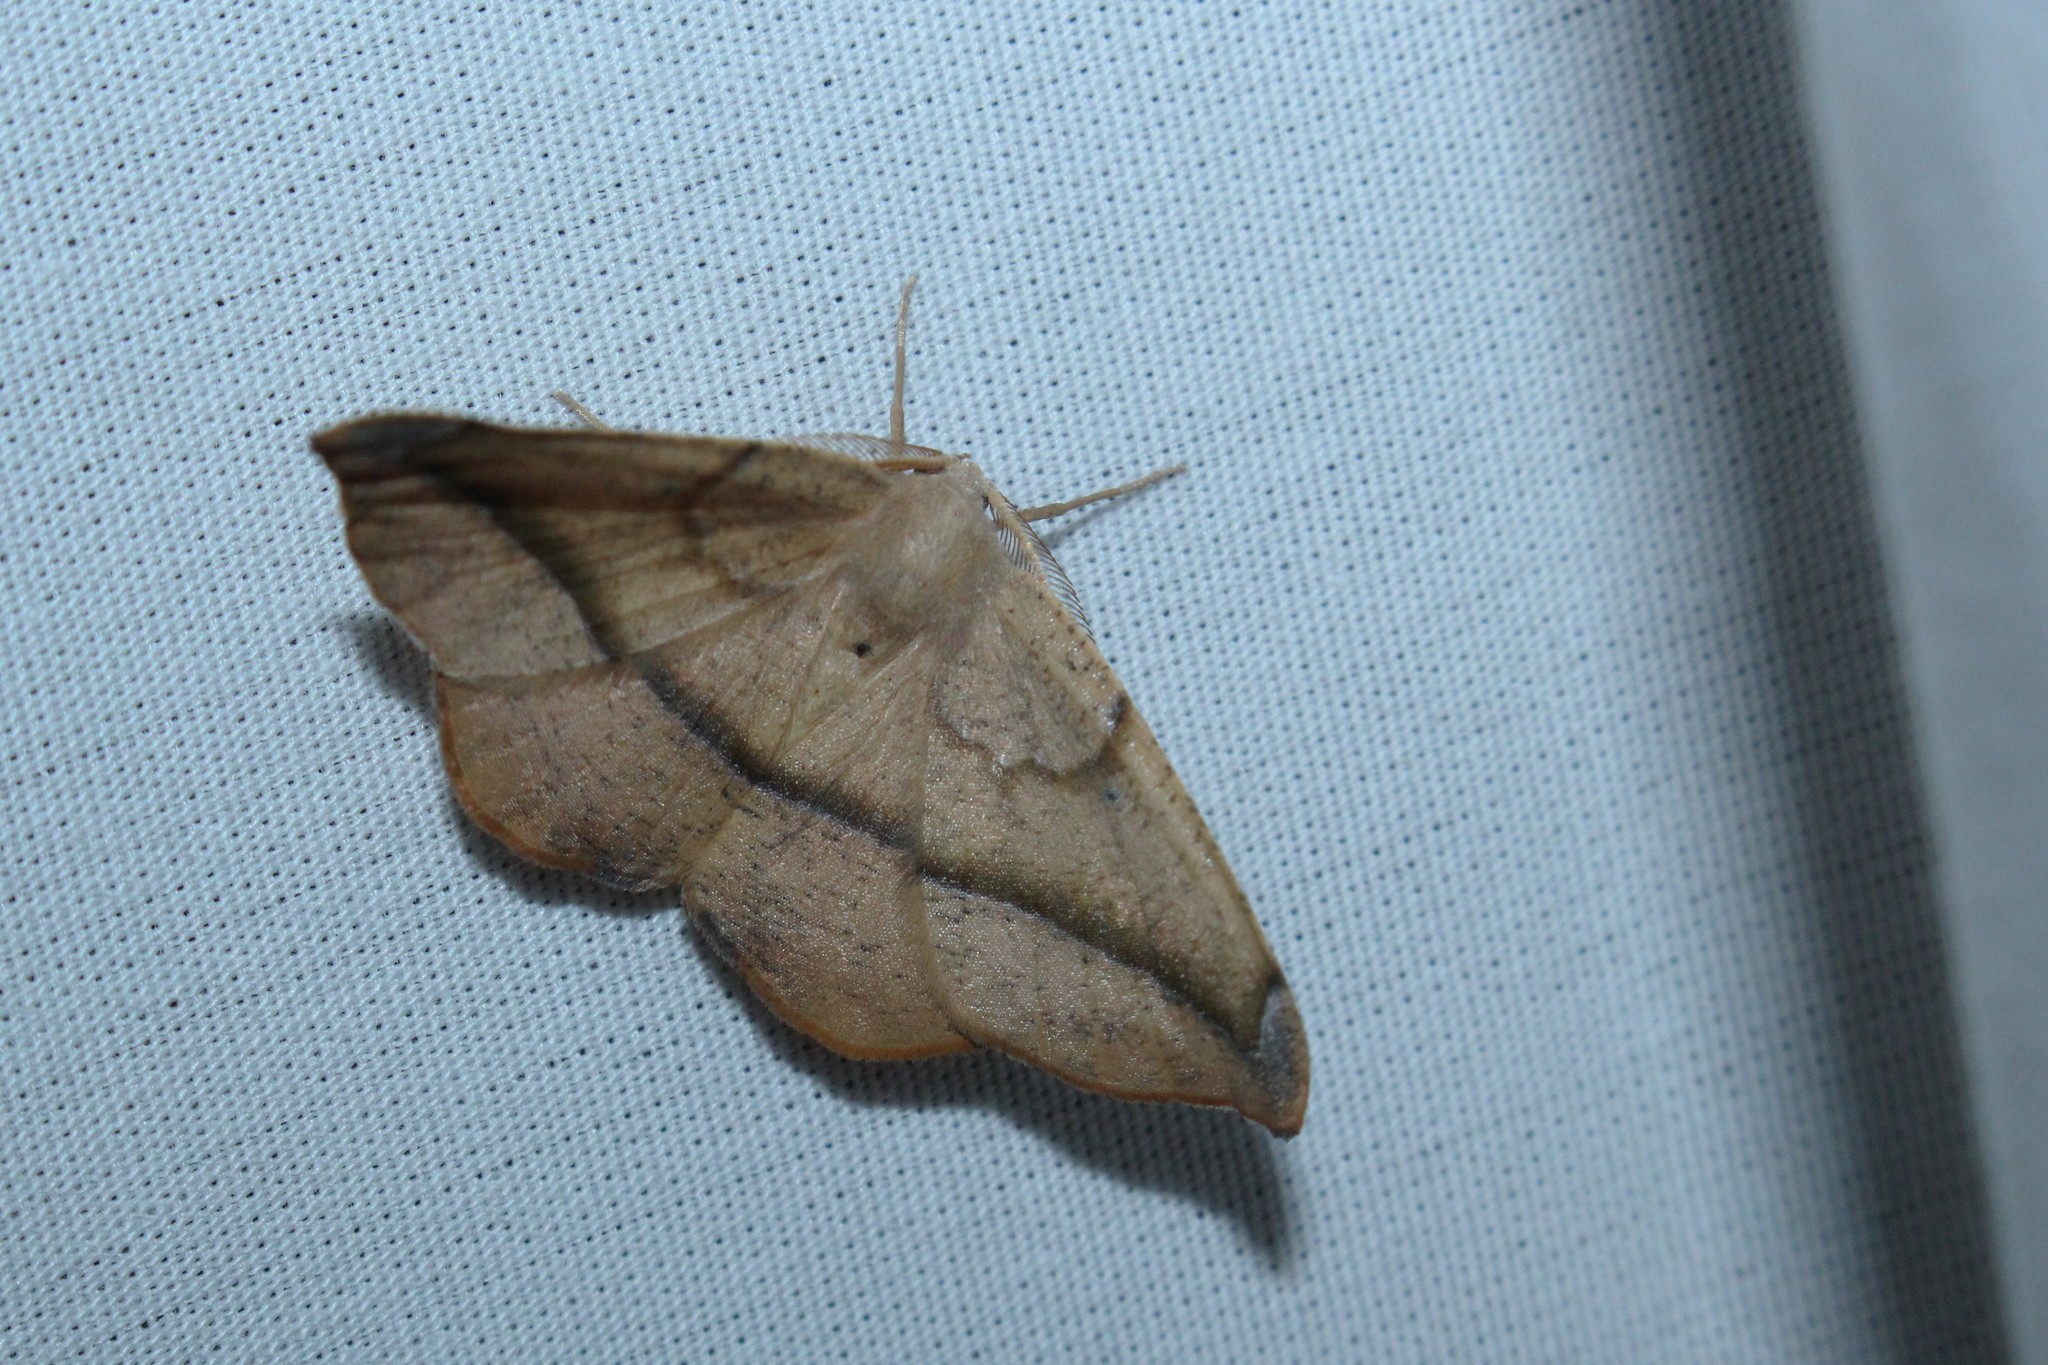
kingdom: Animalia
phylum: Arthropoda
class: Insecta
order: Lepidoptera
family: Geometridae
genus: Patalene
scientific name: Patalene olyzonaria
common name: Juniper geometer moth
